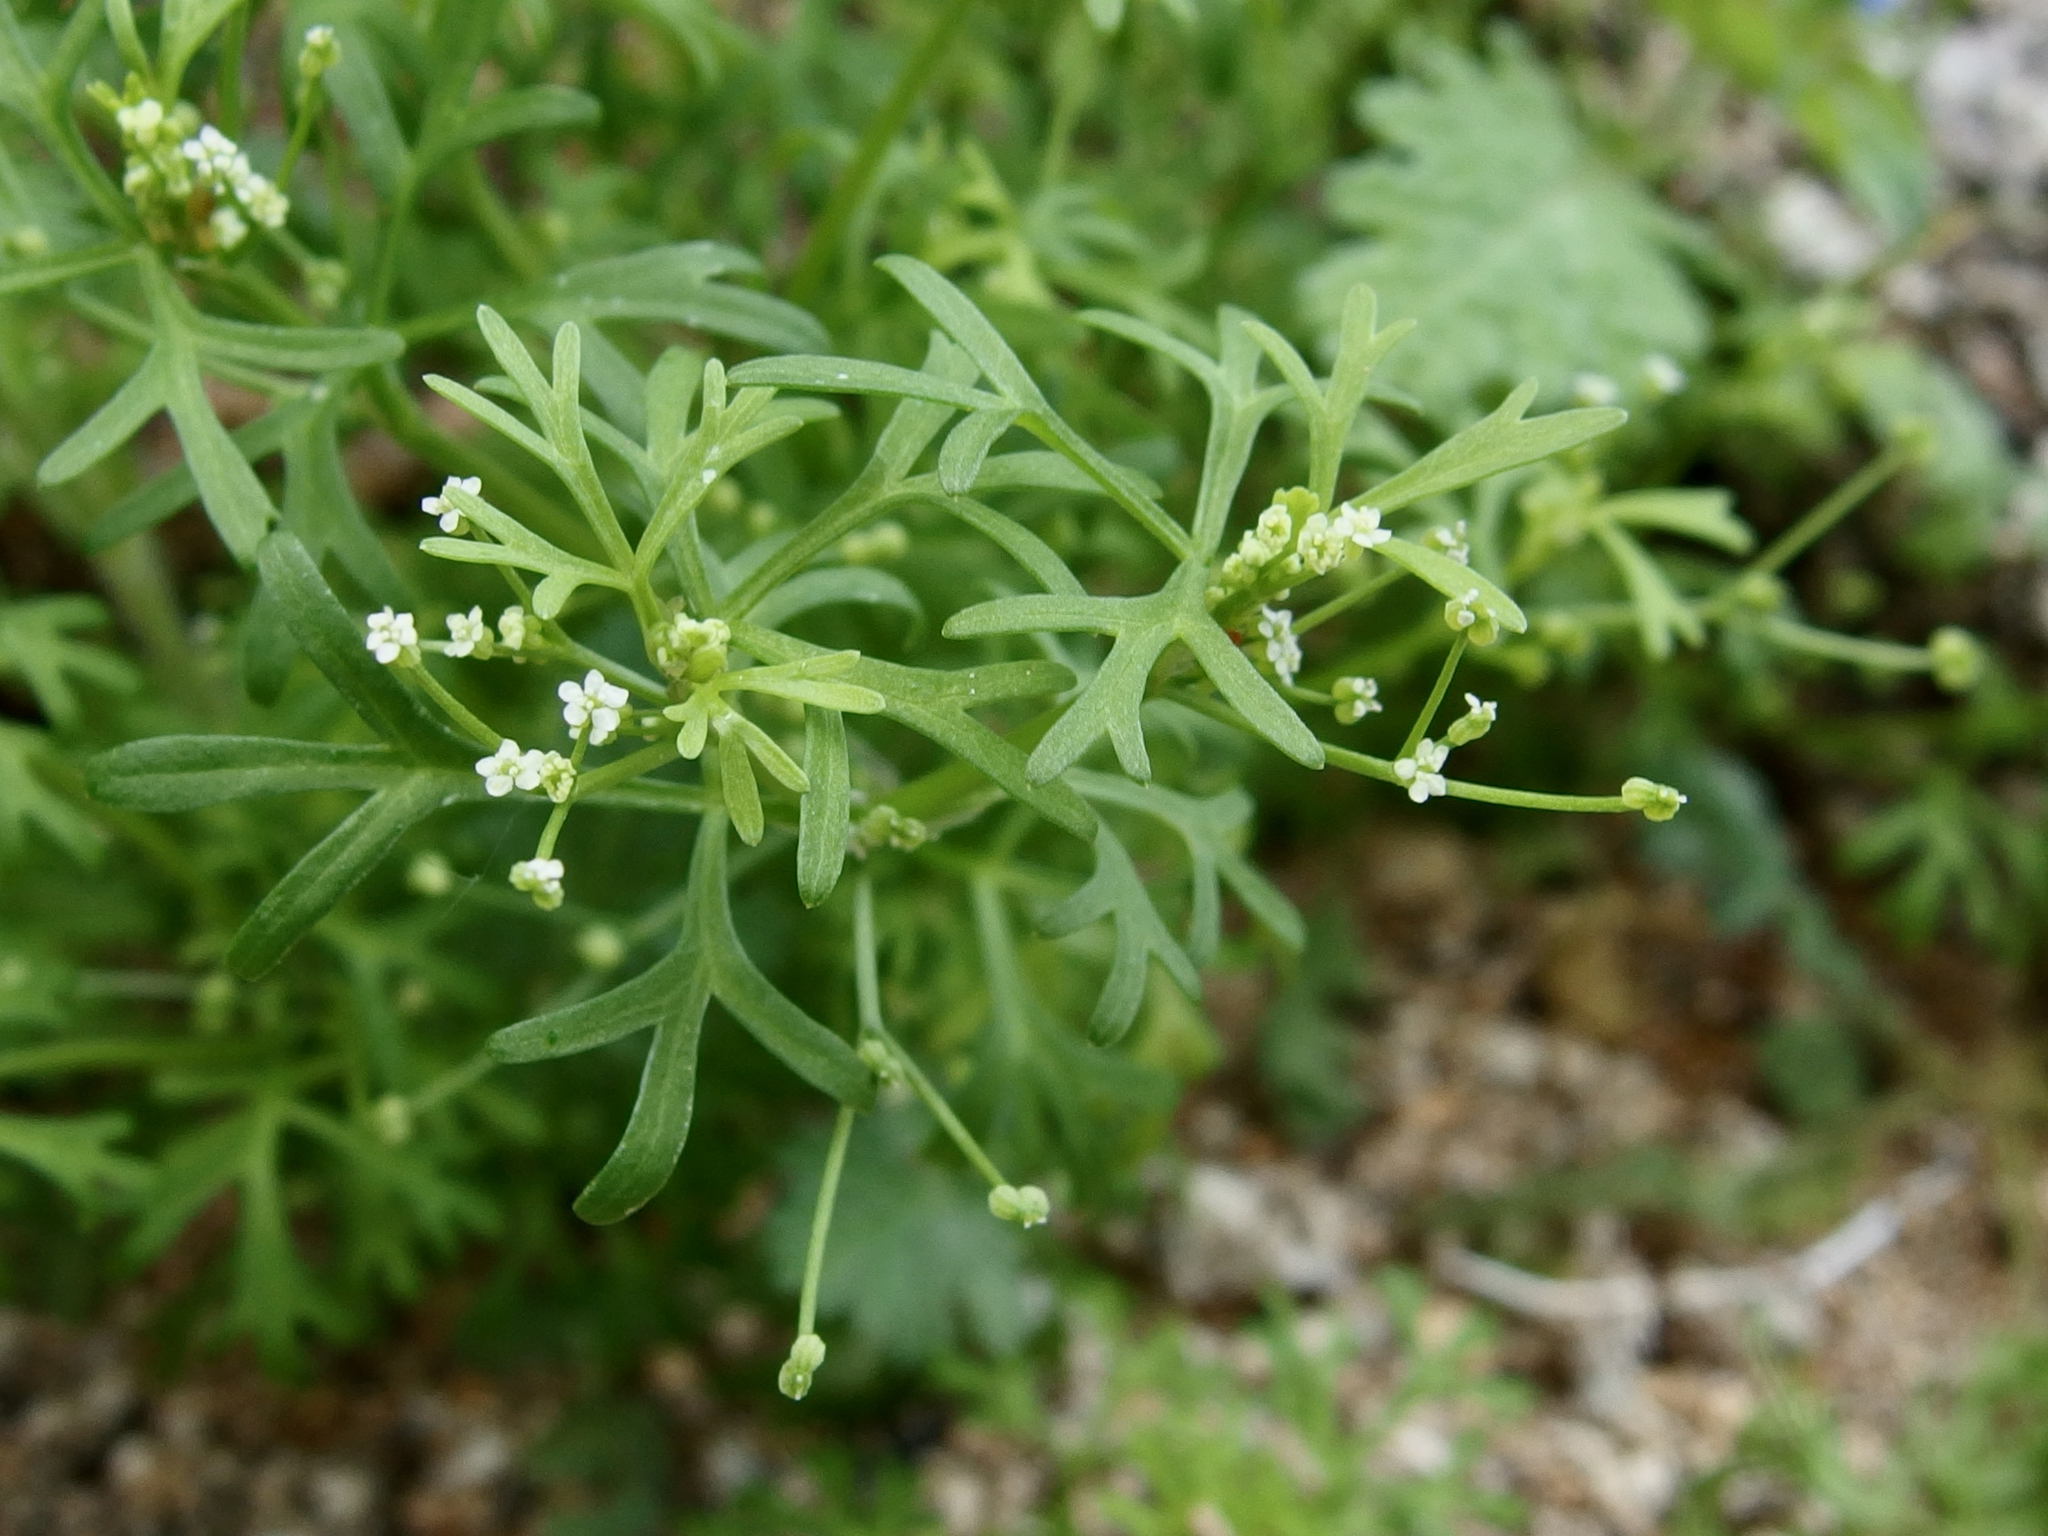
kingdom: Plantae
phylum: Tracheophyta
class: Magnoliopsida
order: Apiales
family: Apiaceae
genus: Apiastrum
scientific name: Apiastrum angustifolium
